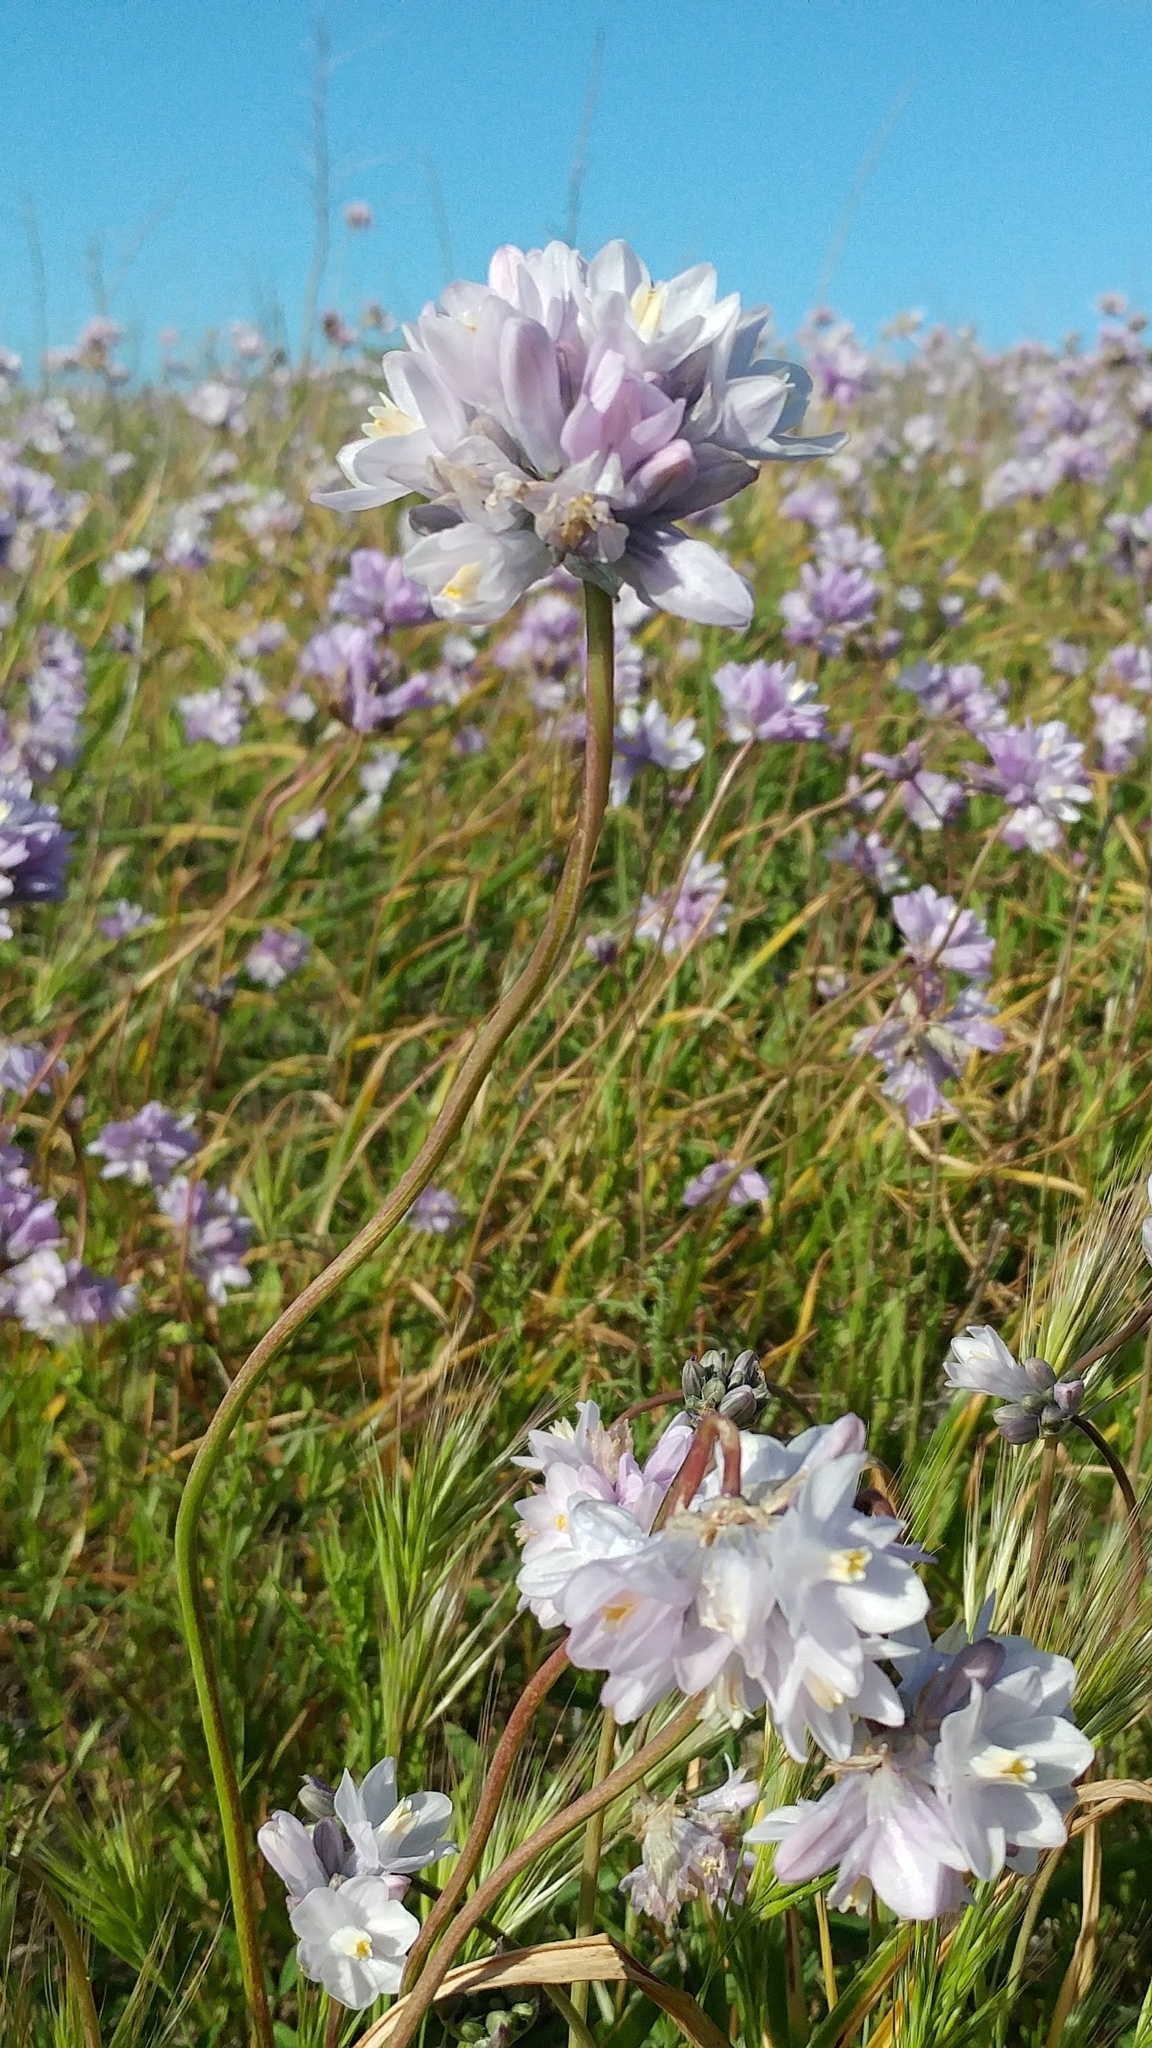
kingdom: Plantae
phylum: Tracheophyta
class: Liliopsida
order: Asparagales
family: Asparagaceae
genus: Dipterostemon
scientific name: Dipterostemon capitatus
